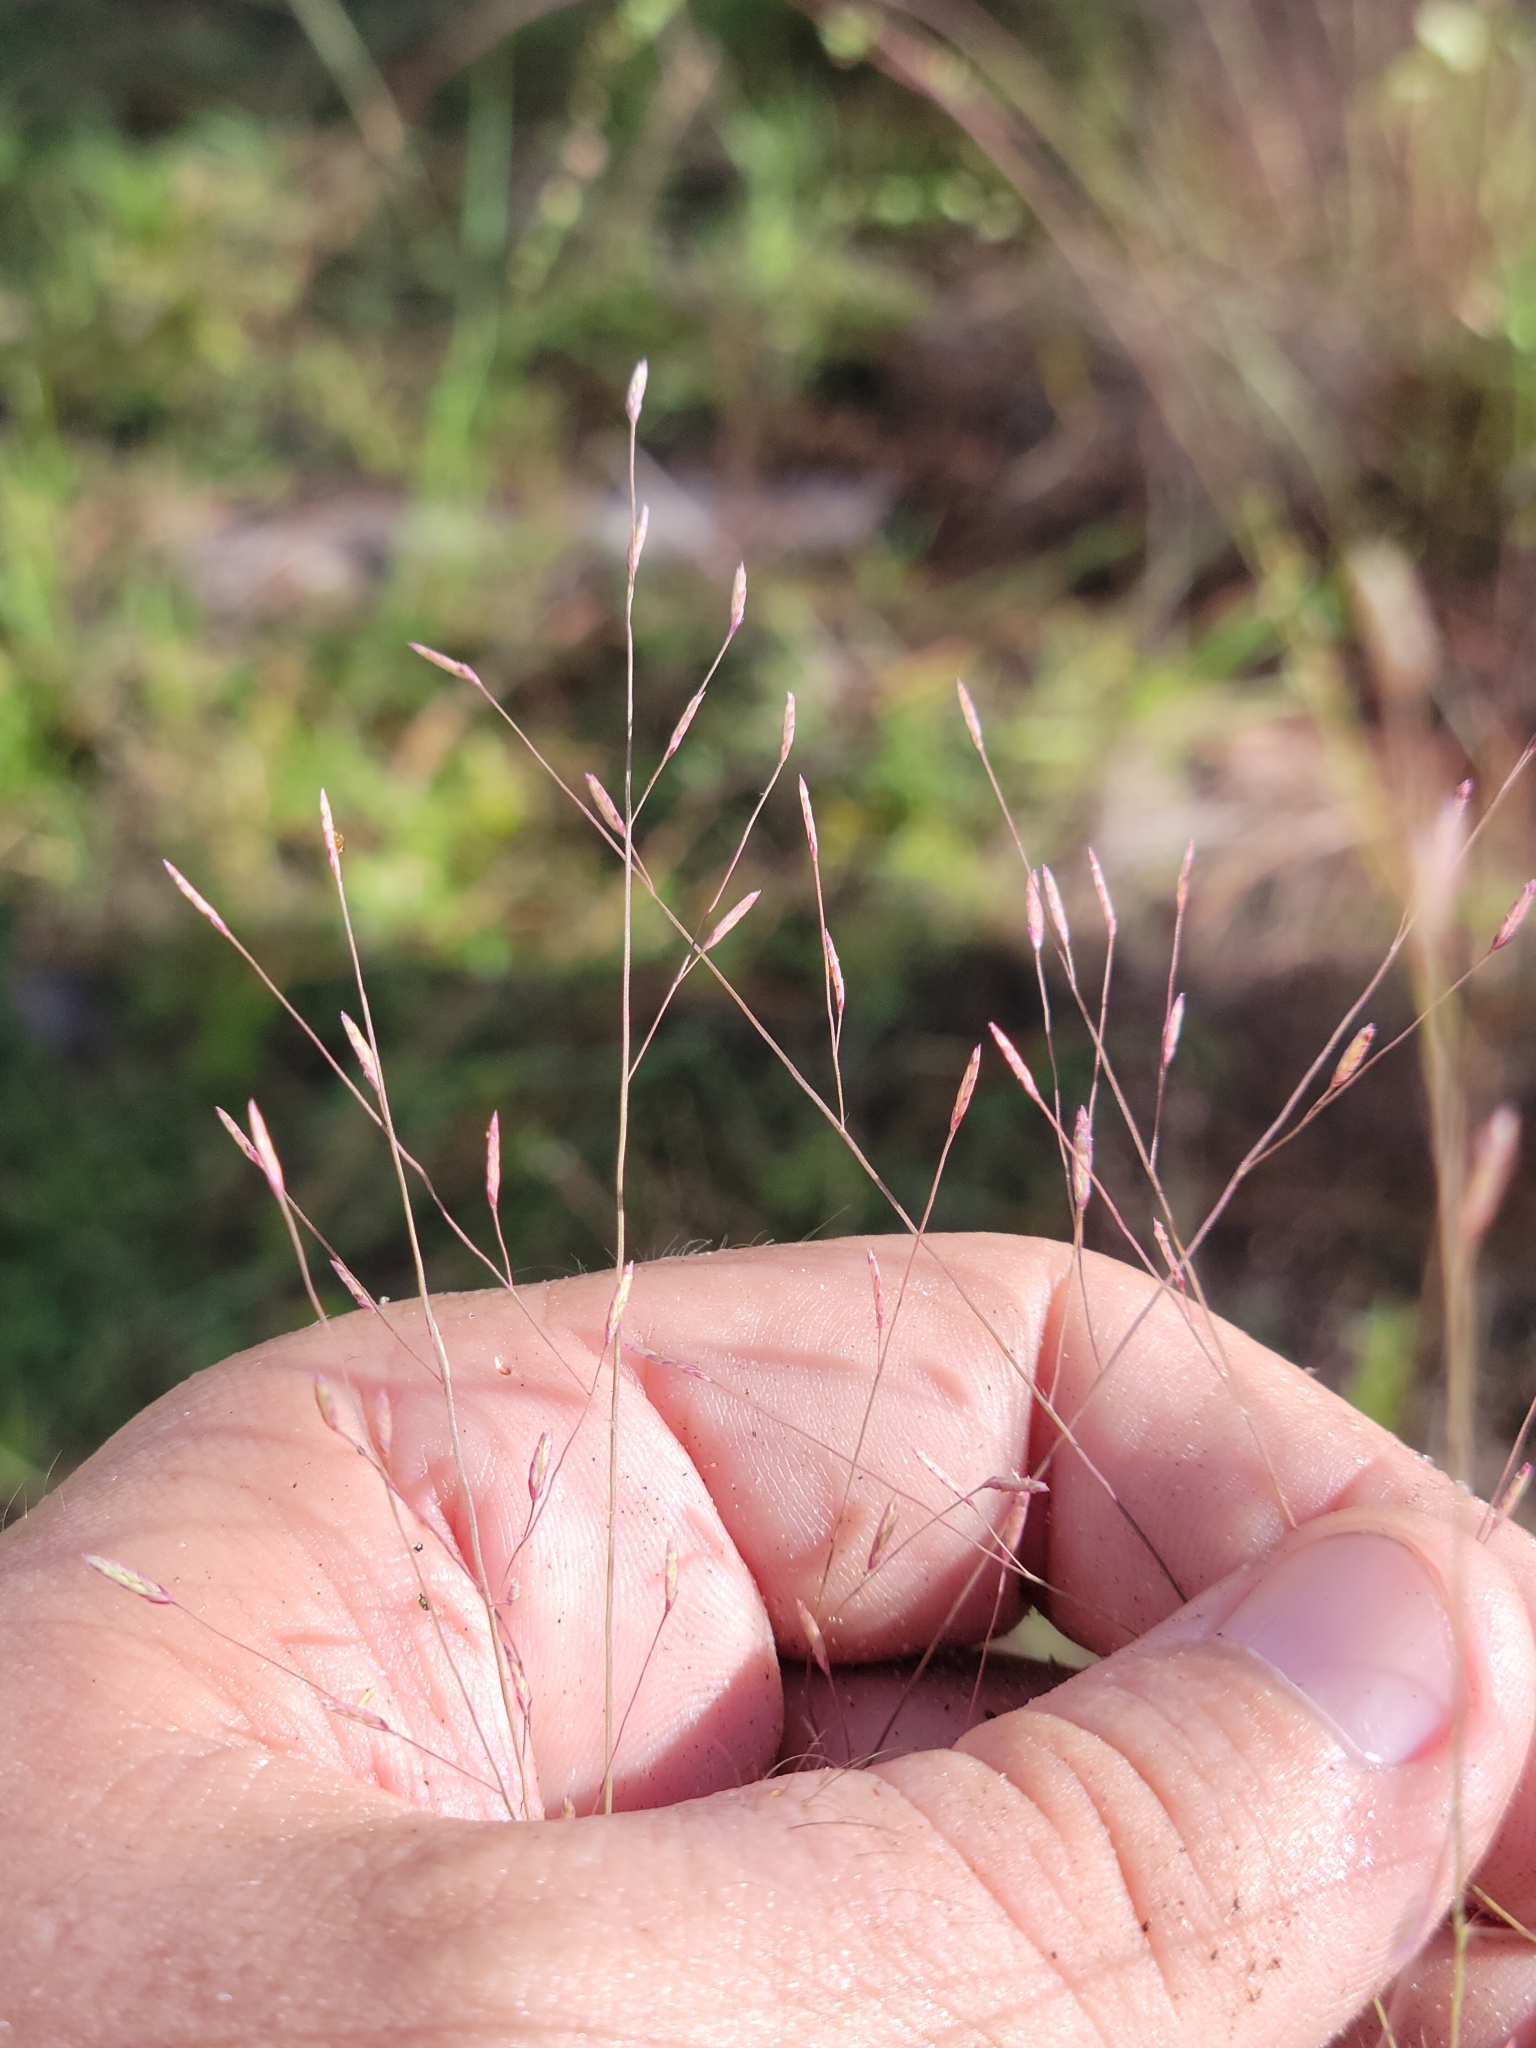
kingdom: Plantae
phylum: Tracheophyta
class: Liliopsida
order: Poales
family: Poaceae
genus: Eragrostis
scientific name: Eragrostis spectabilis
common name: Petticoat-climber
